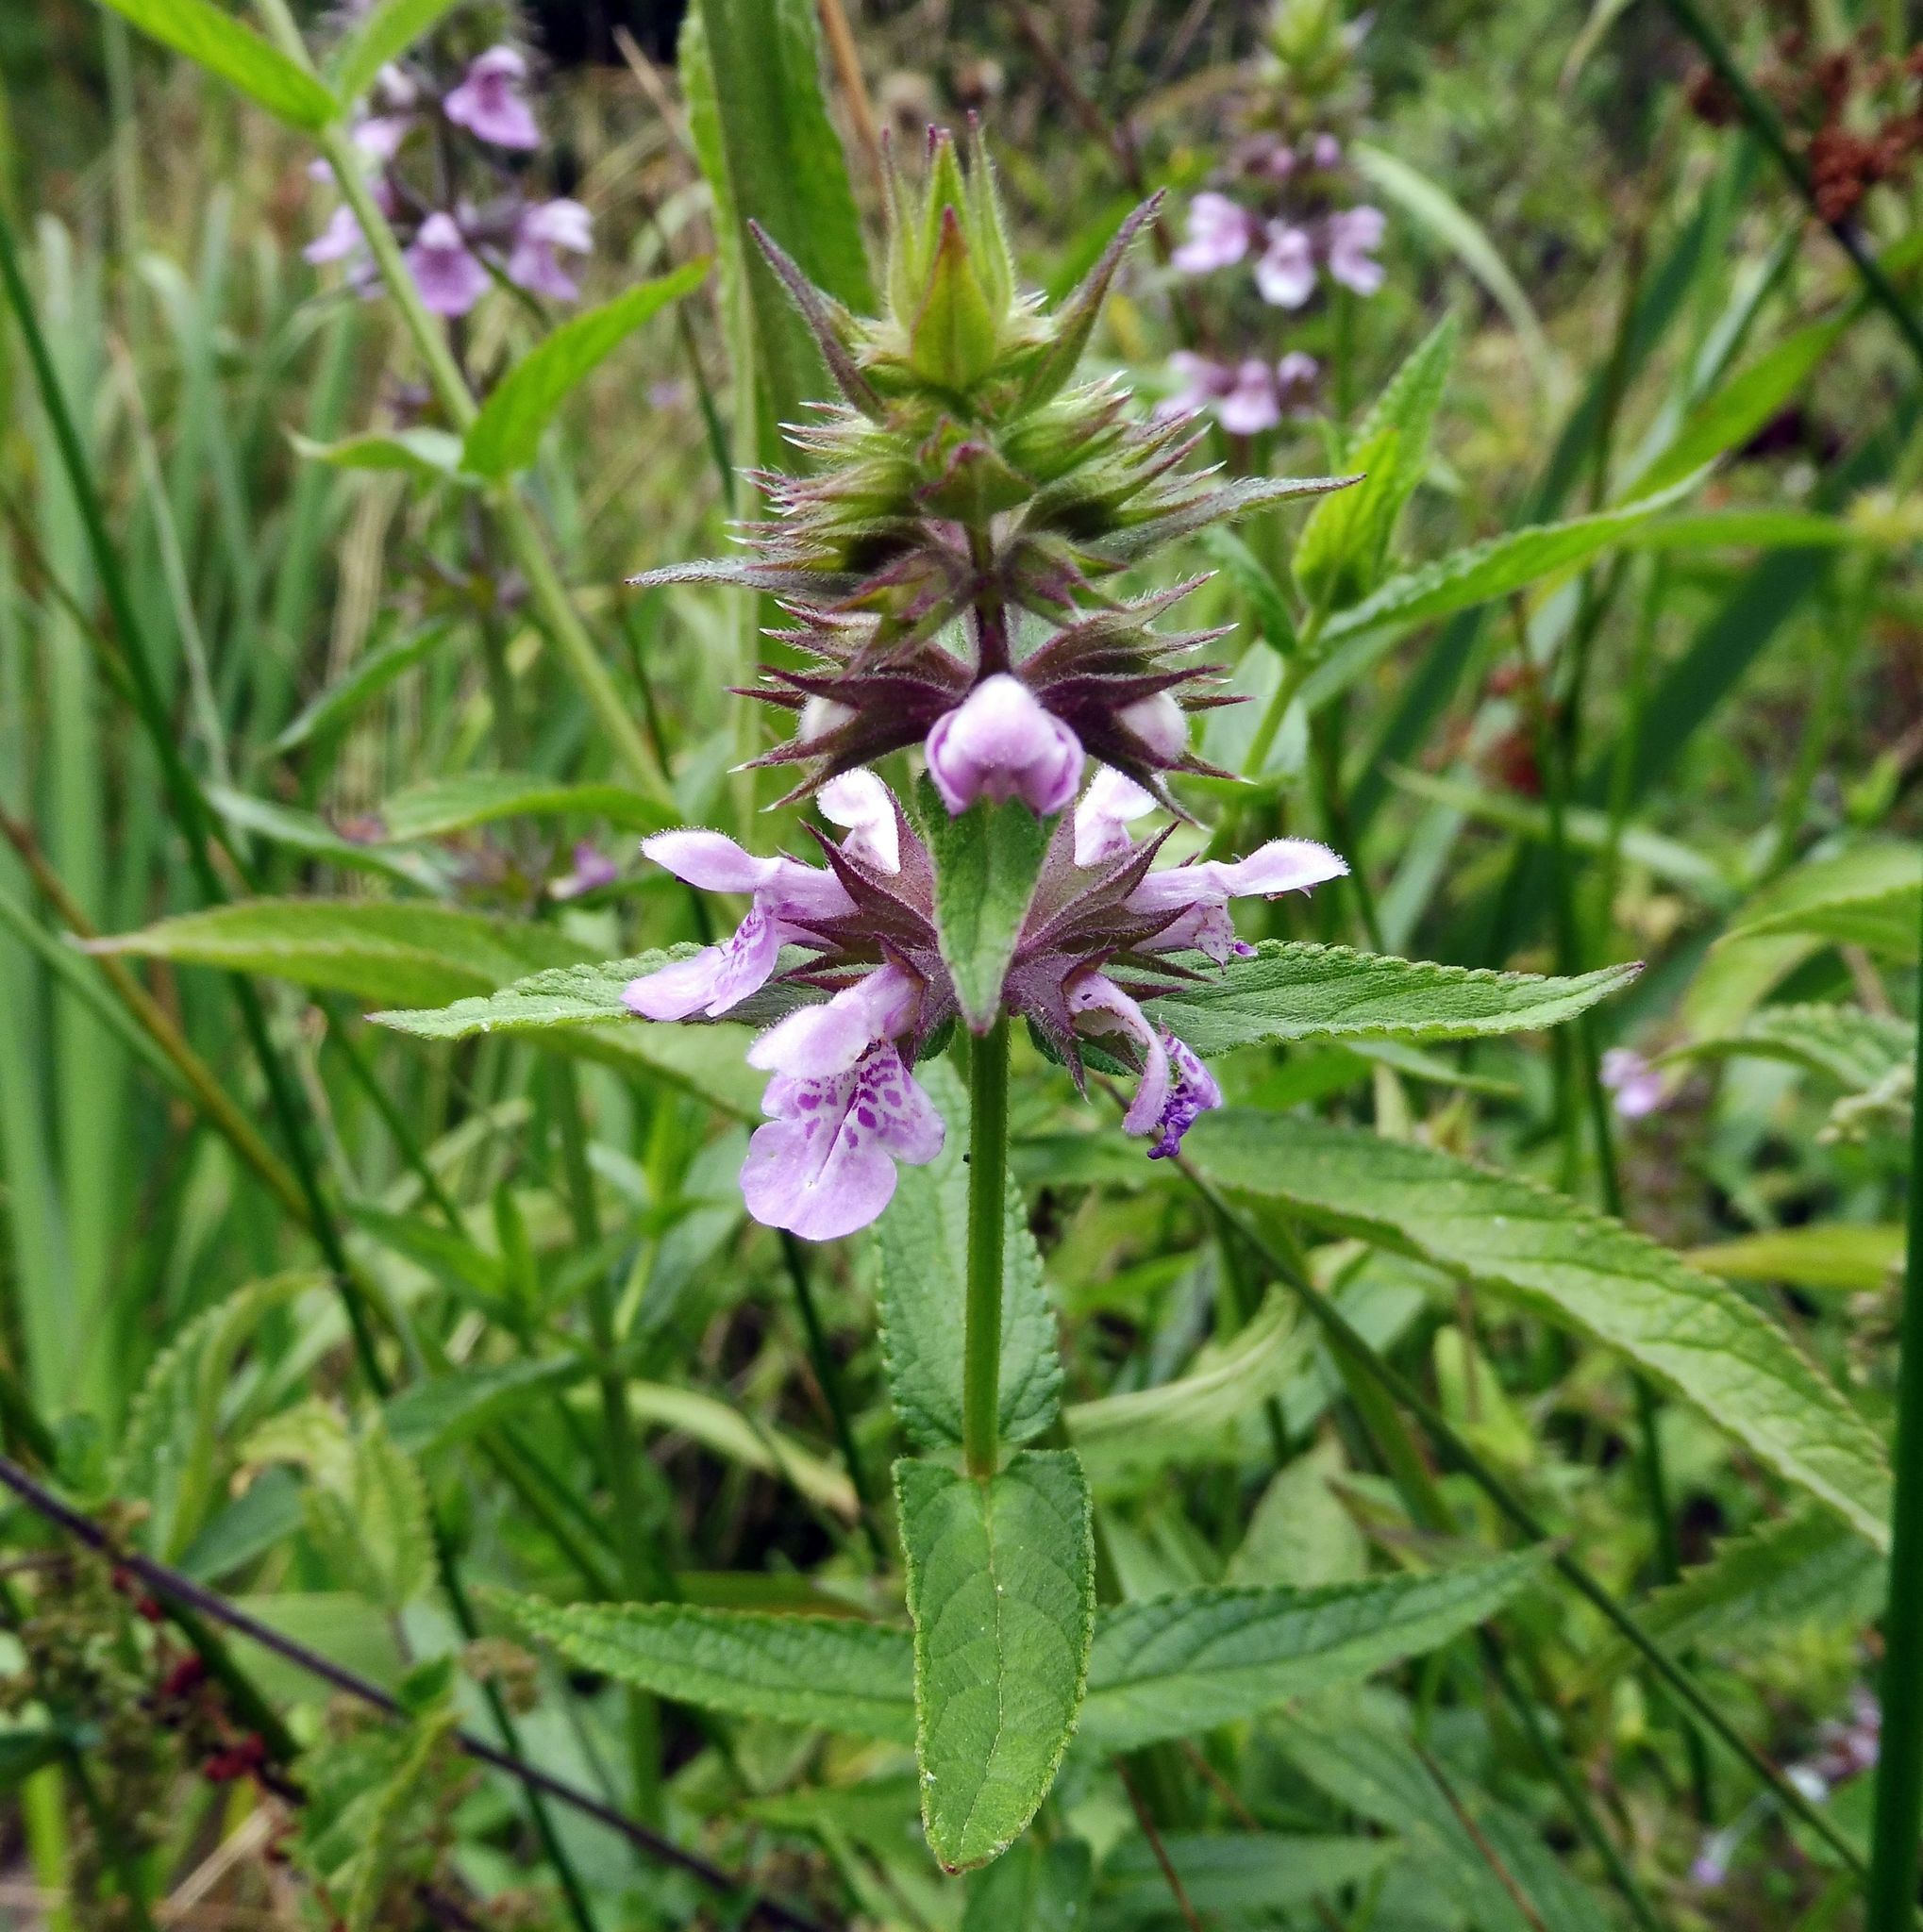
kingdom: Plantae
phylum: Tracheophyta
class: Magnoliopsida
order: Lamiales
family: Lamiaceae
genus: Stachys
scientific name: Stachys palustris
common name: Marsh woundwort
